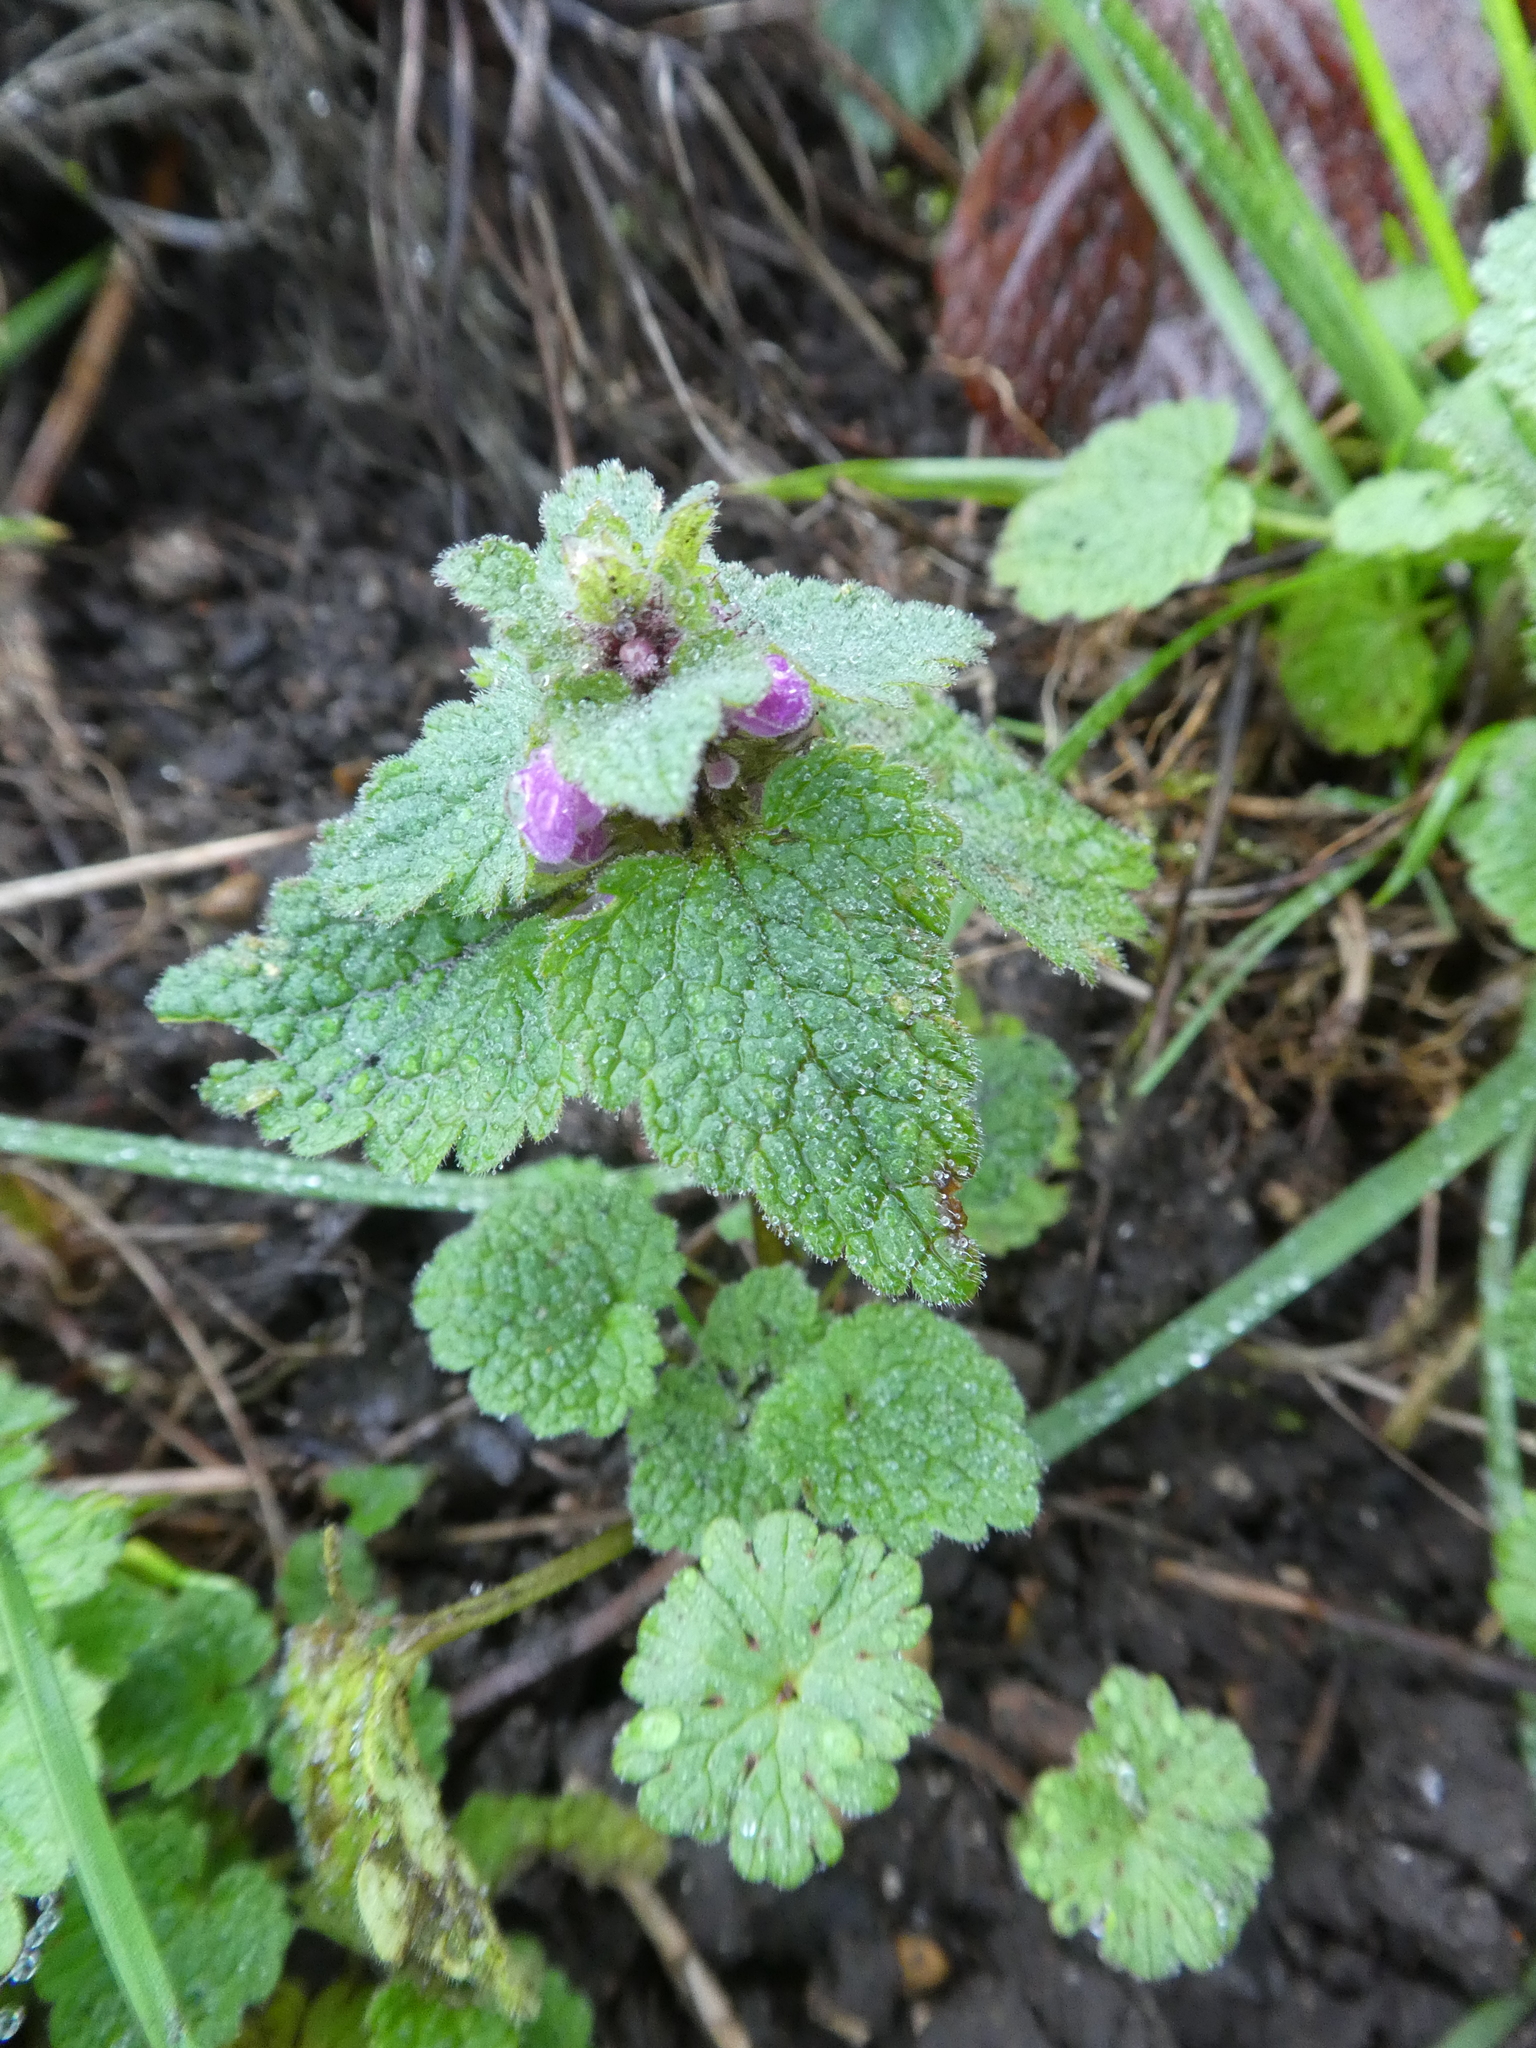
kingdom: Plantae
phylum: Tracheophyta
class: Magnoliopsida
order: Lamiales
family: Lamiaceae
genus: Lamium
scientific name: Lamium purpureum
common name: Red dead-nettle
